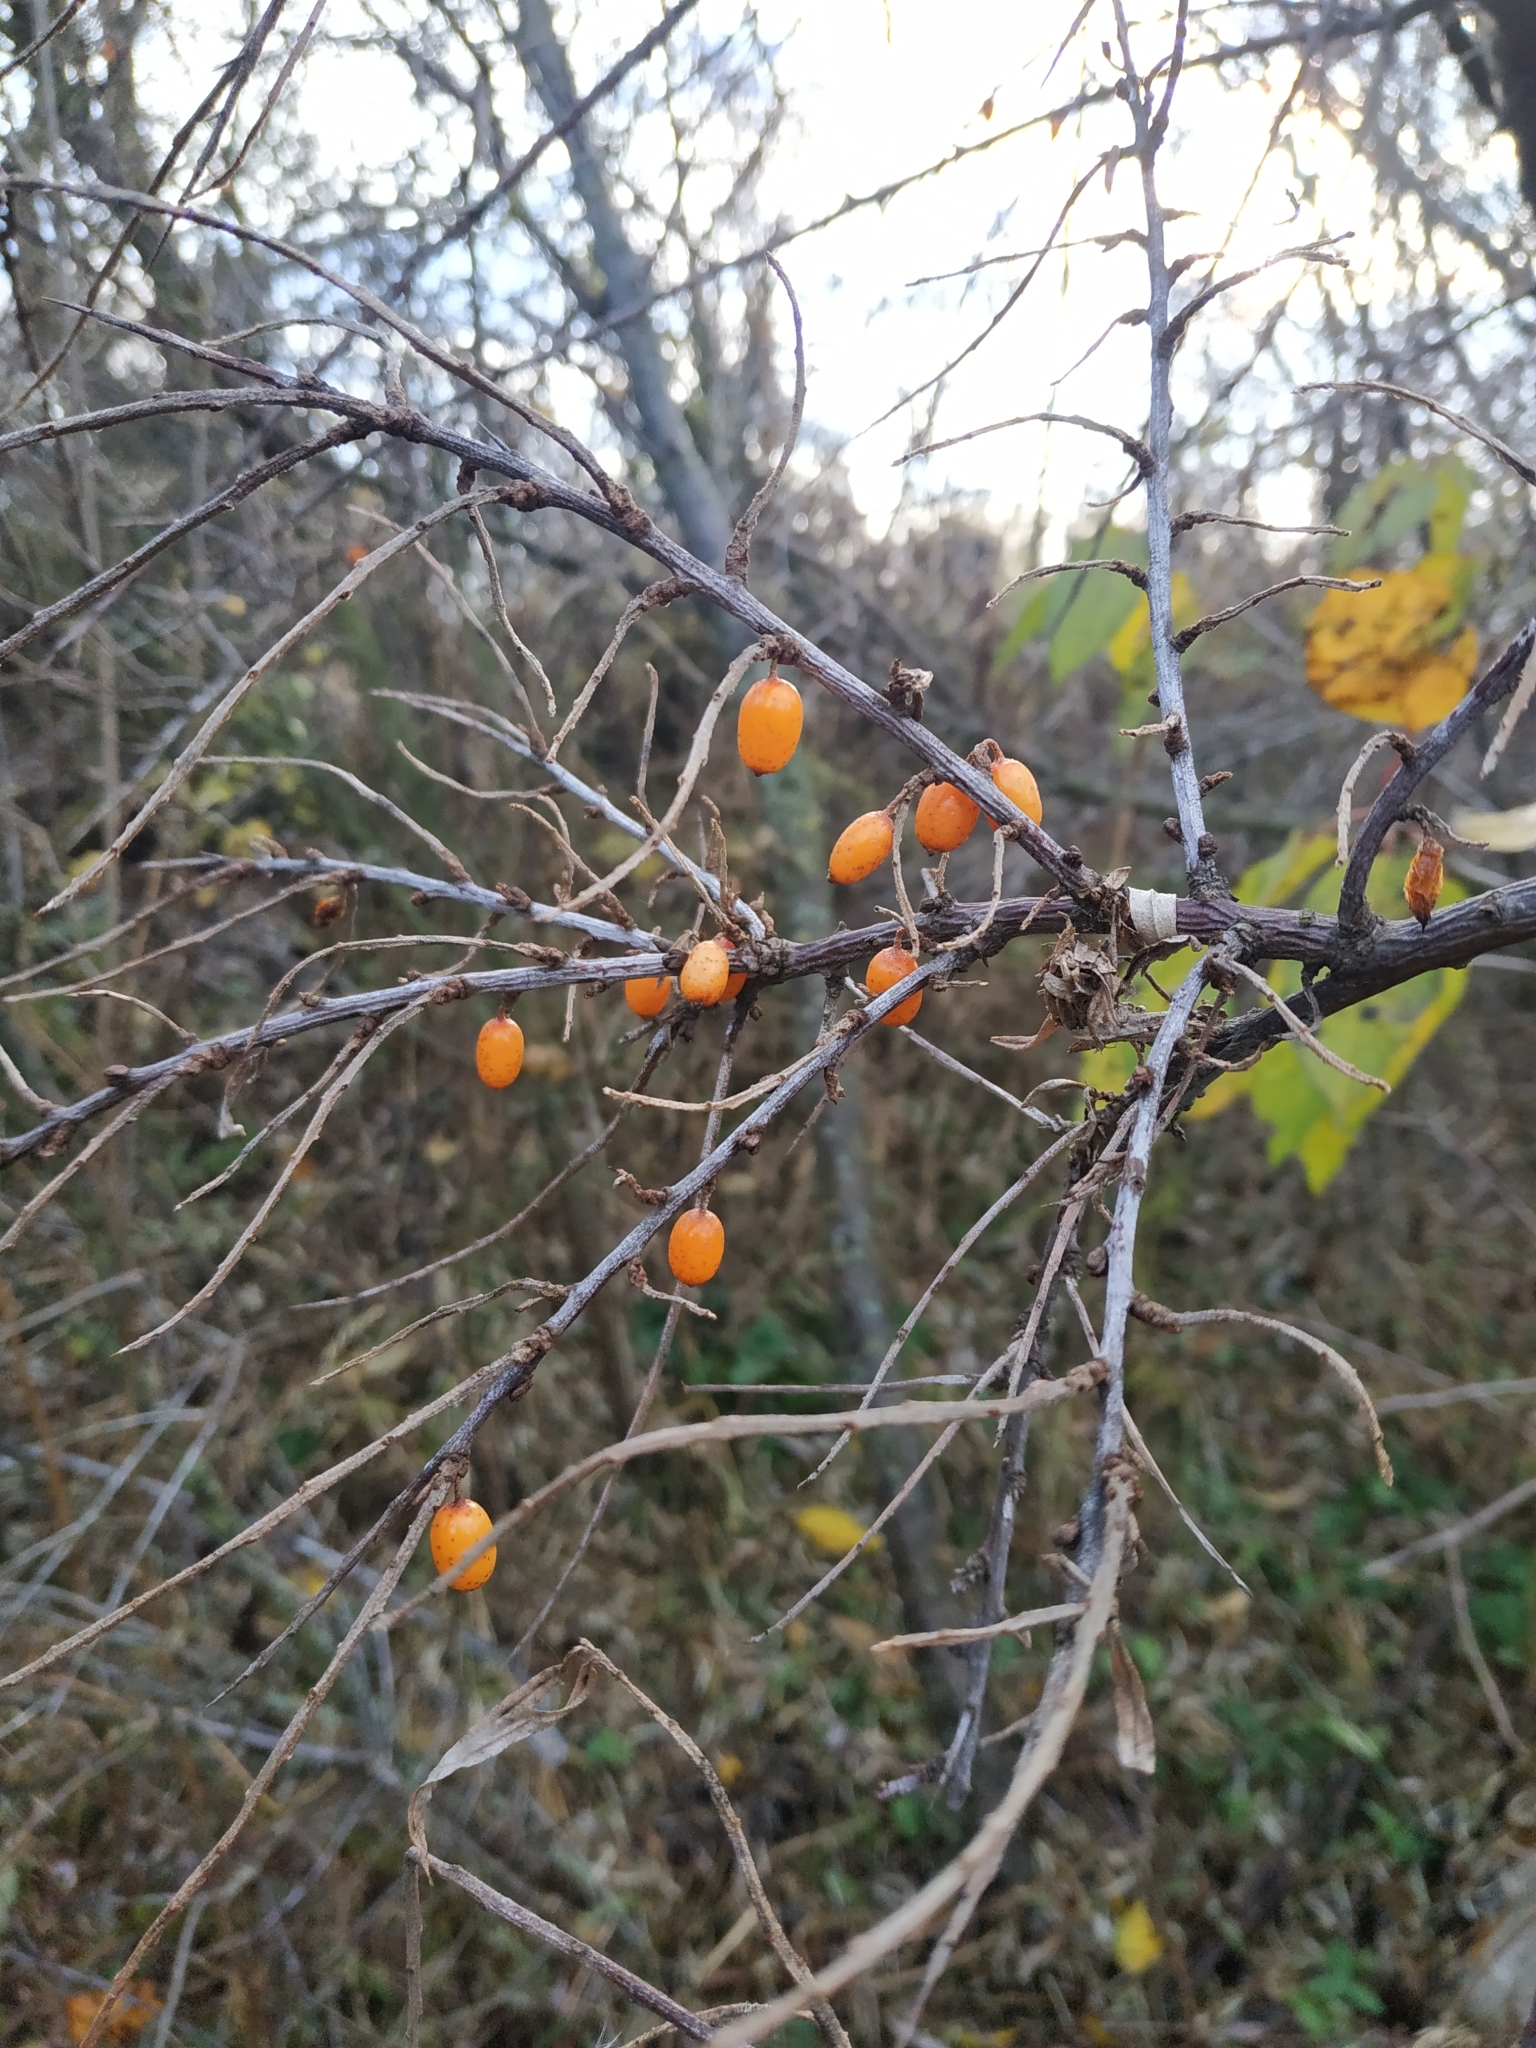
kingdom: Plantae
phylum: Tracheophyta
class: Magnoliopsida
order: Rosales
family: Elaeagnaceae
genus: Hippophae
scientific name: Hippophae rhamnoides
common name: Sea-buckthorn
